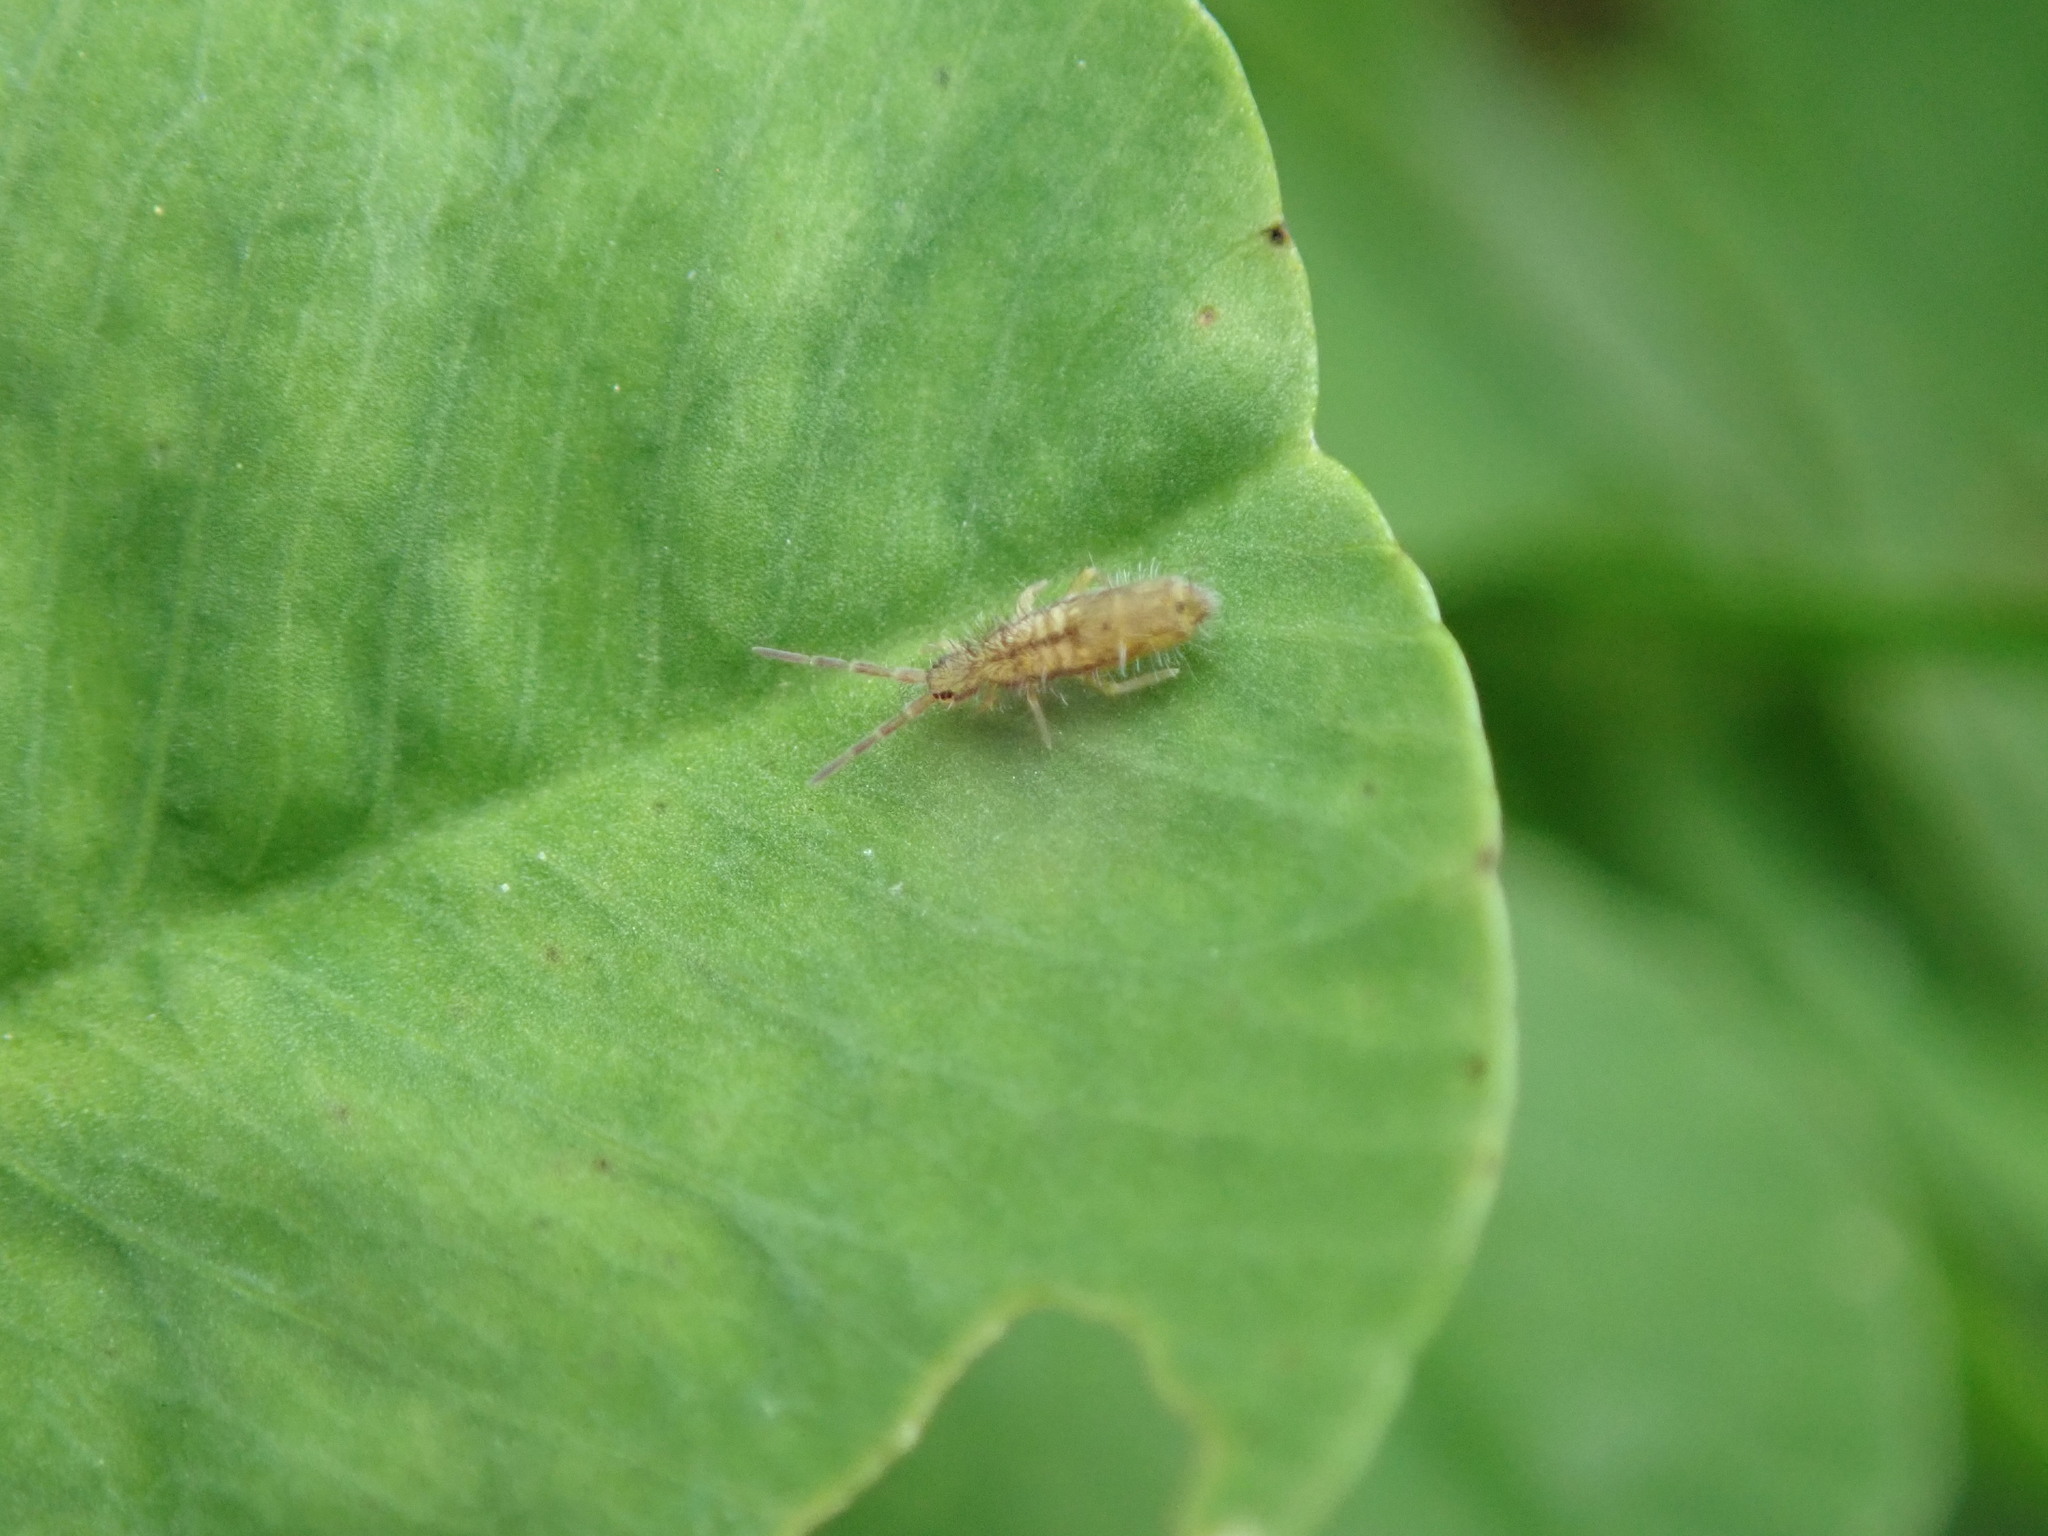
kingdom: Animalia
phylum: Arthropoda
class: Collembola
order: Entomobryomorpha
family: Entomobryidae
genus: Homidia
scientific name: Homidia socia
